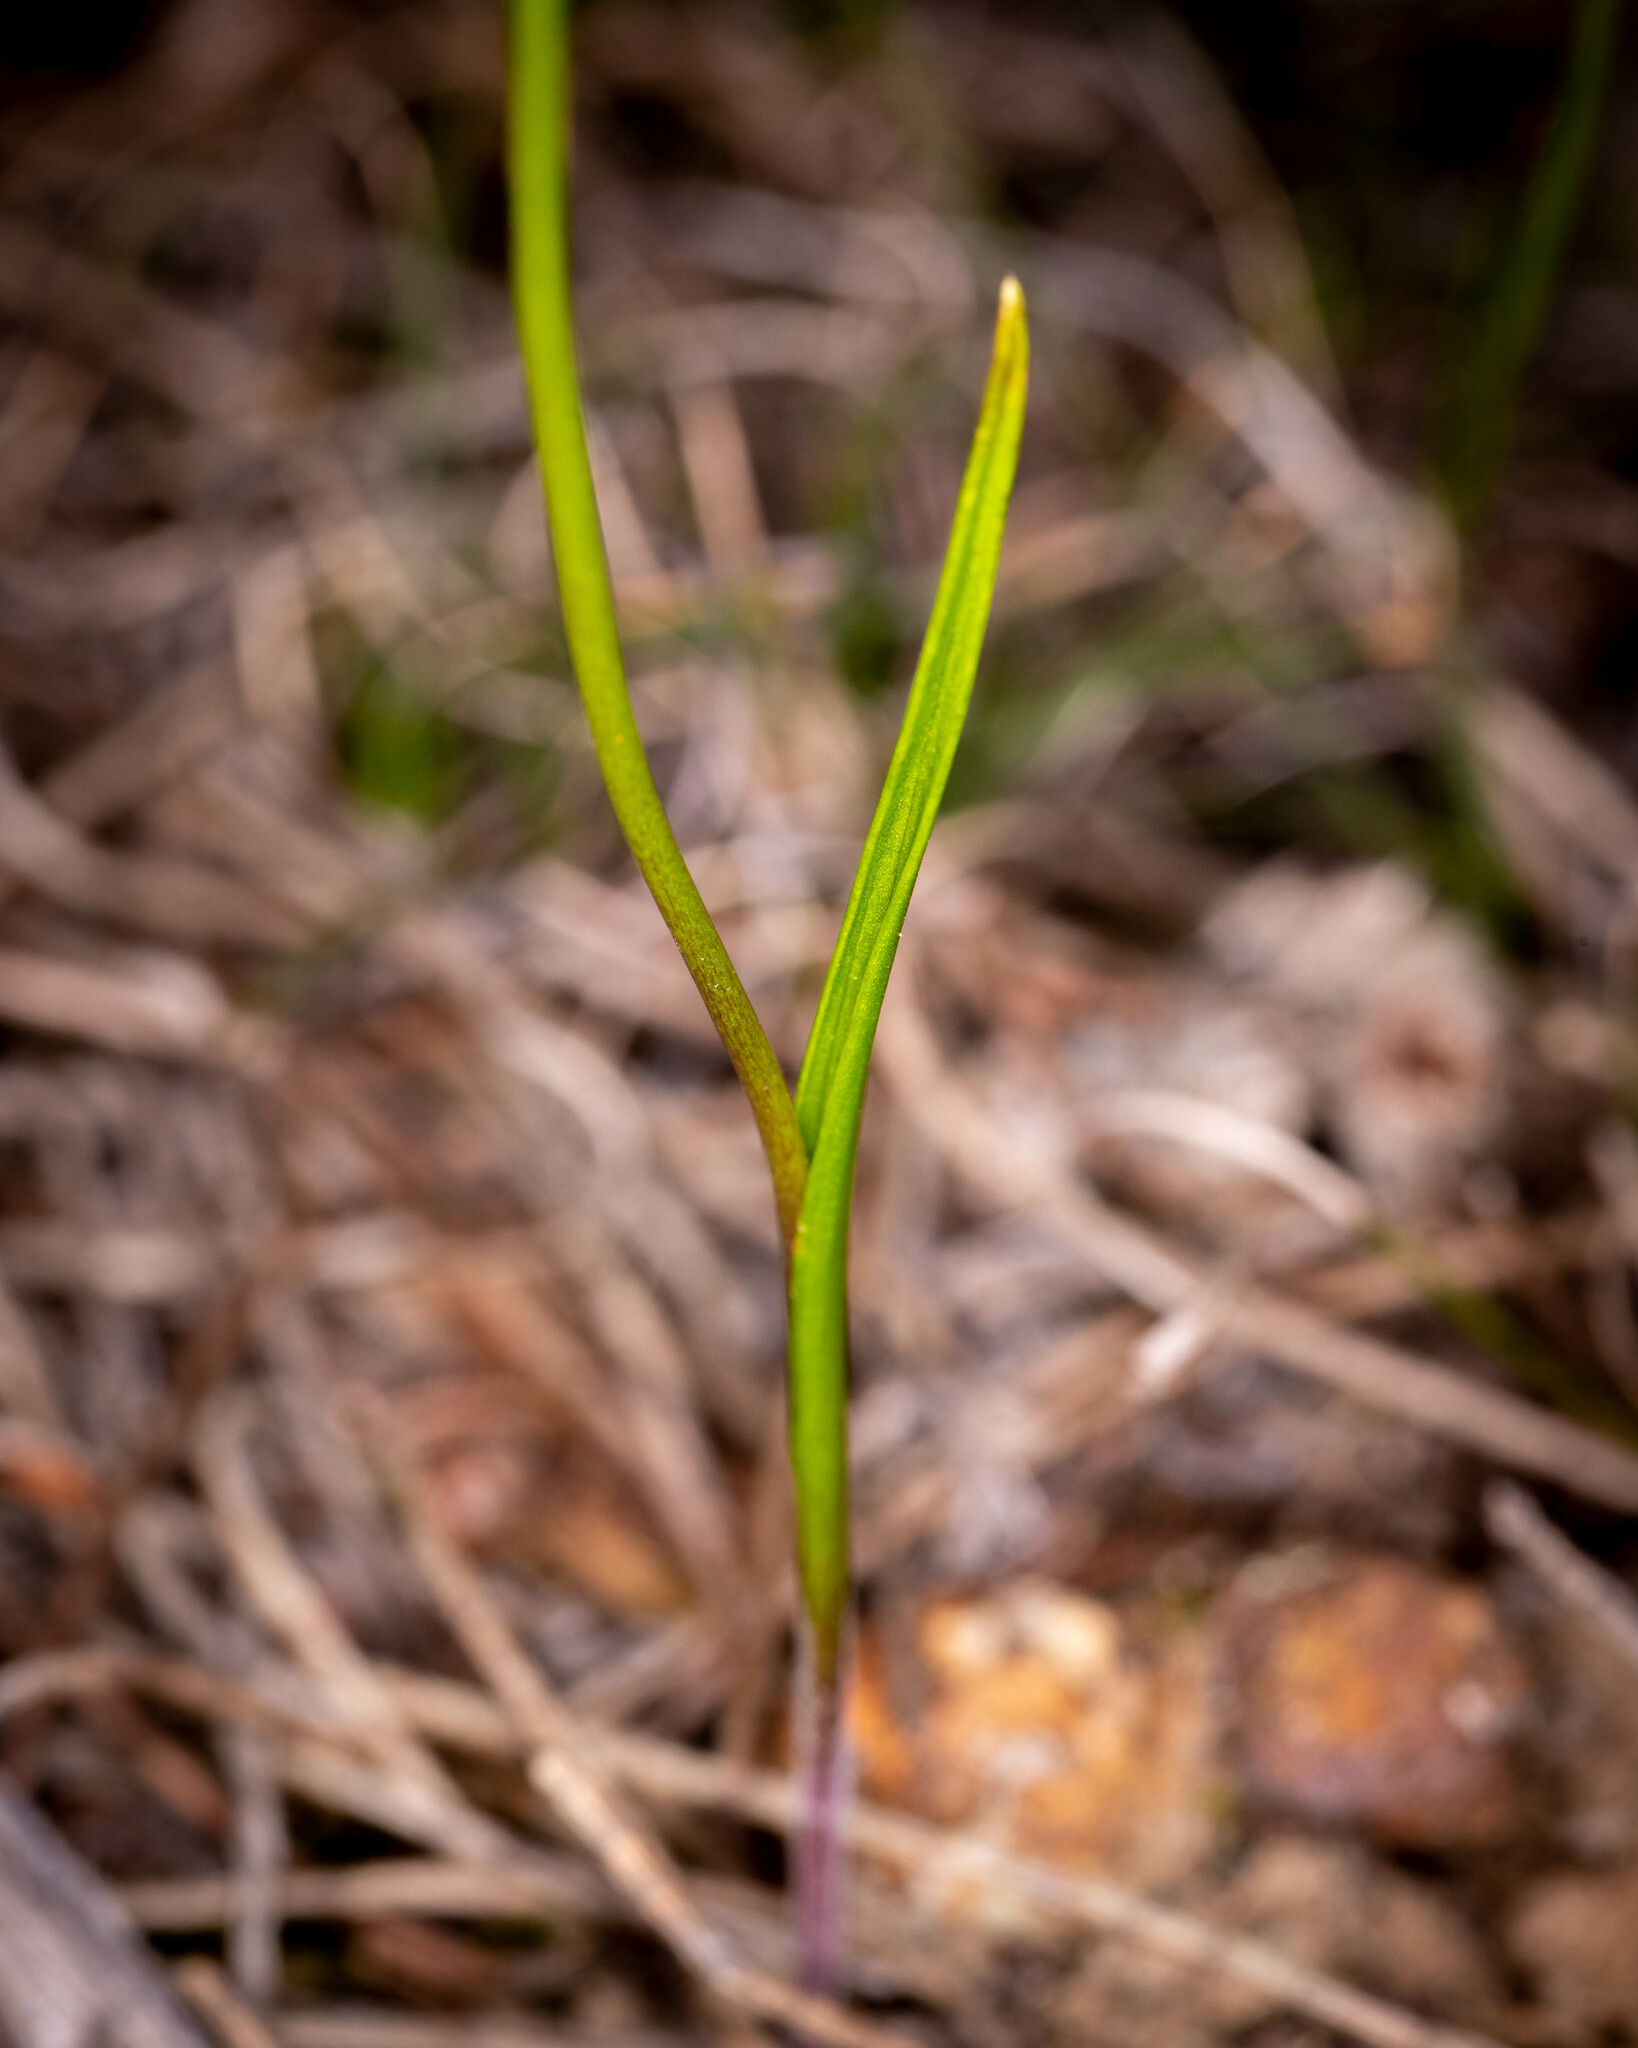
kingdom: Plantae
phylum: Tracheophyta
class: Liliopsida
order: Asparagales
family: Orchidaceae
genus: Thelymitra
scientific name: Thelymitra apiculata
